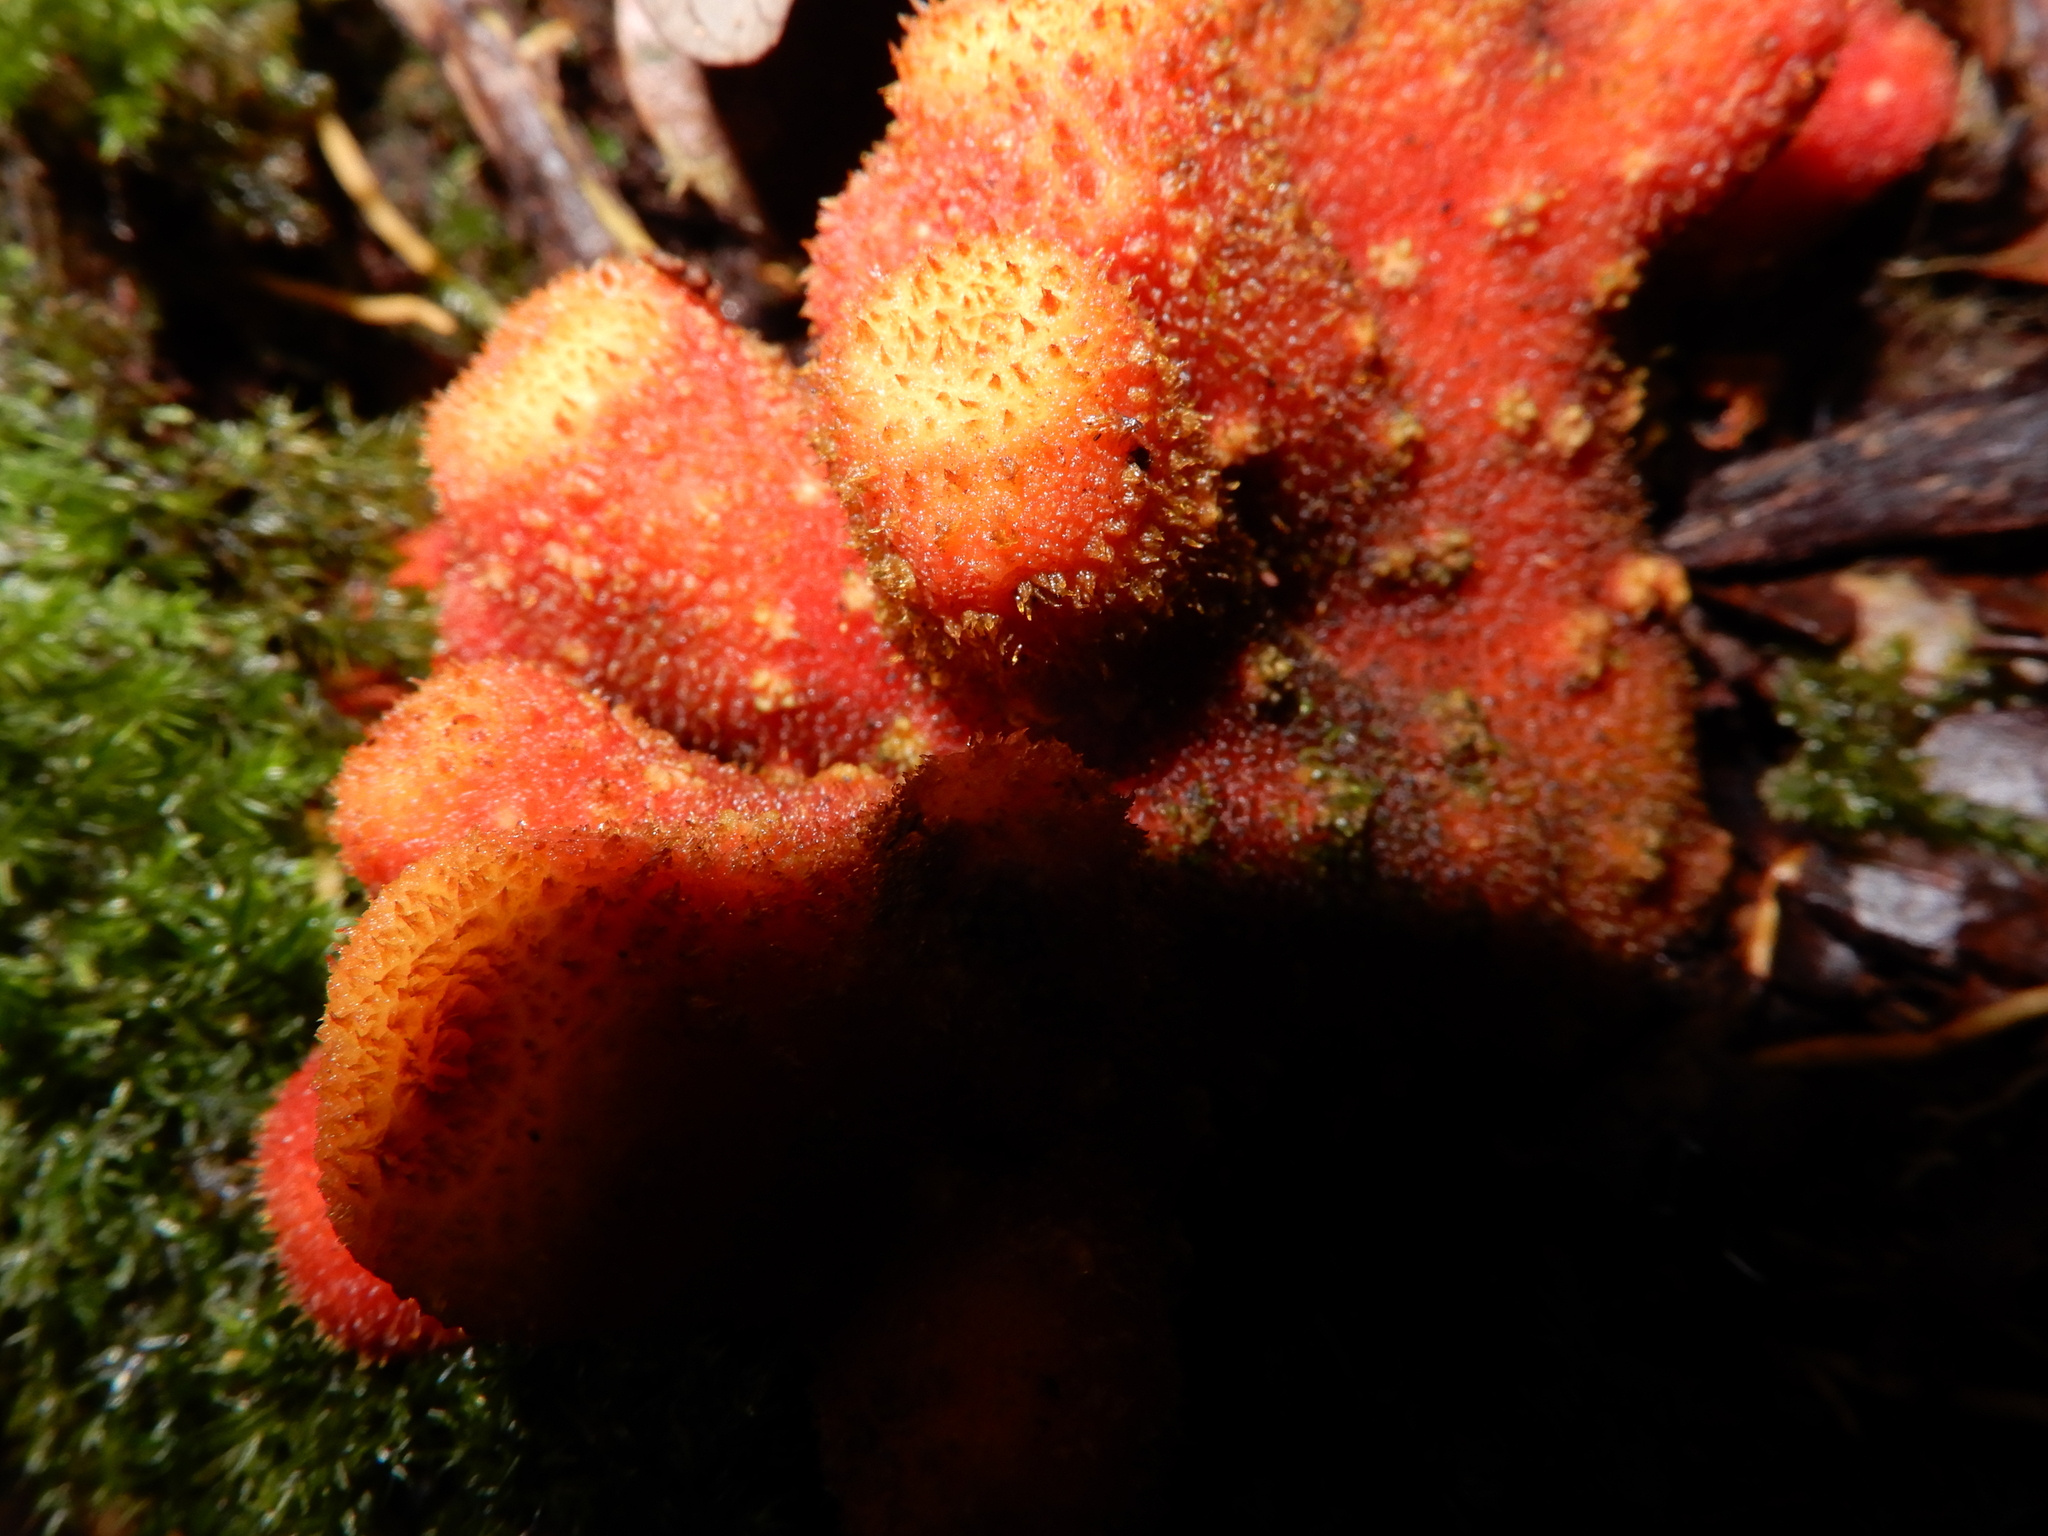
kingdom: Plantae
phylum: Tracheophyta
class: Magnoliopsida
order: Santalales
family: Balanophoraceae
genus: Balanophora
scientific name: Balanophora papuana
